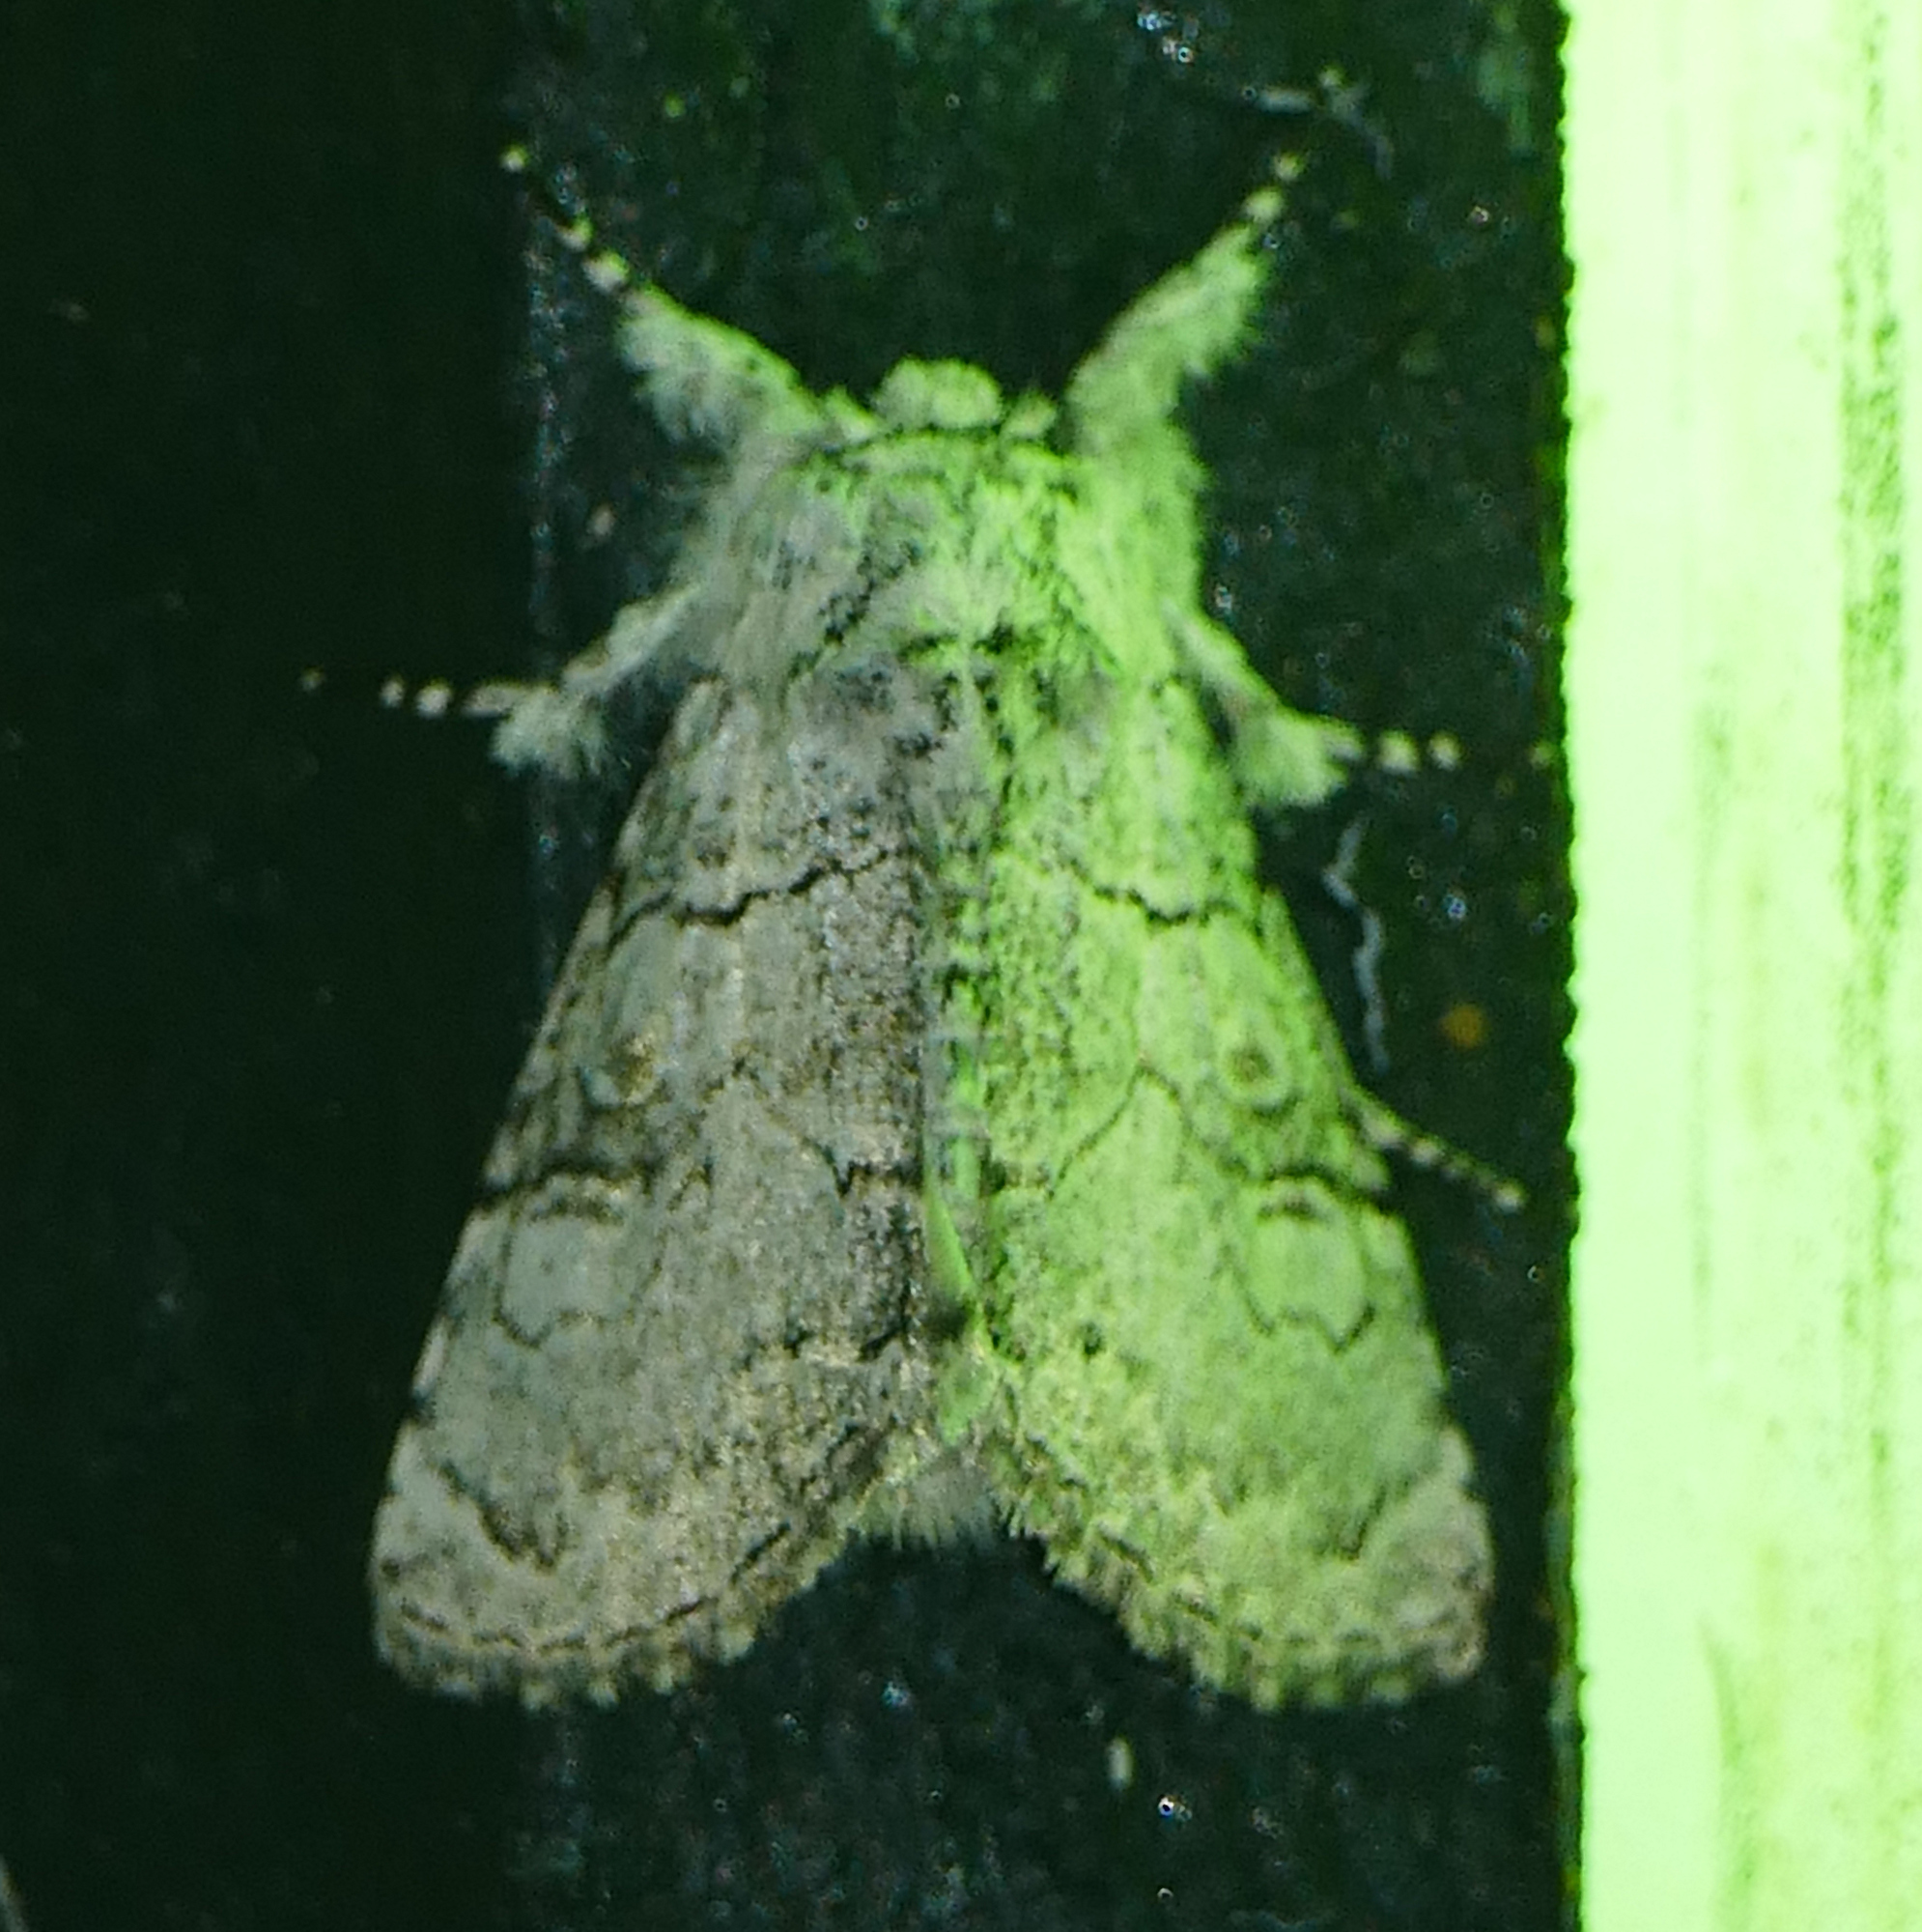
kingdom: Animalia
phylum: Arthropoda
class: Insecta
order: Lepidoptera
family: Noctuidae
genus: Charadra
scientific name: Charadra dispulsa
